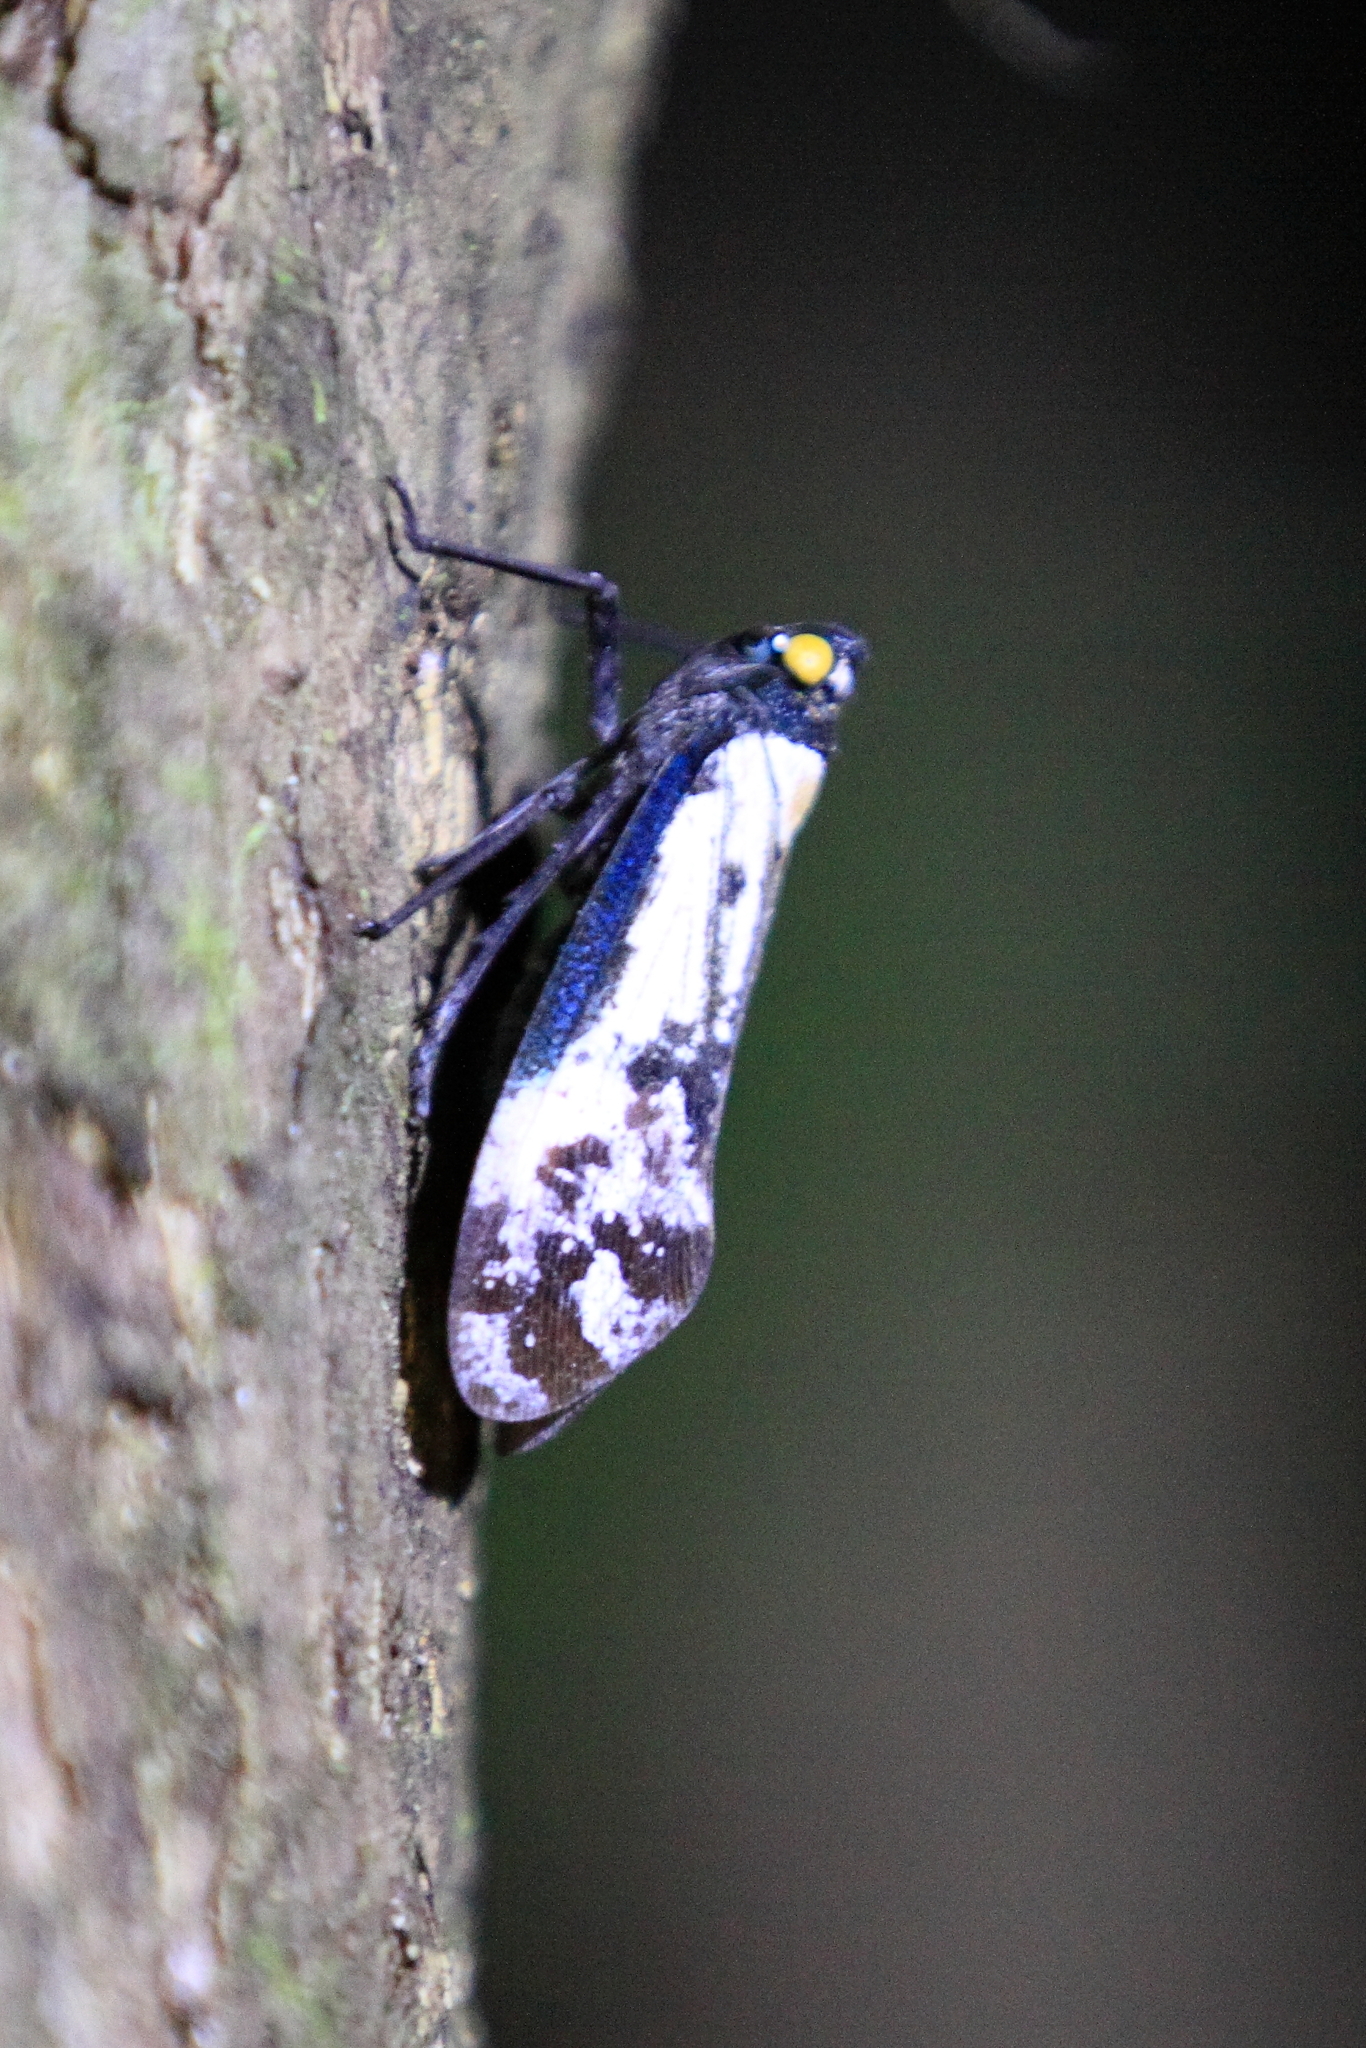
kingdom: Animalia
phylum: Arthropoda
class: Insecta
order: Hemiptera
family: Fulgoridae
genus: Penthicodes
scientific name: Penthicodes farinosa
